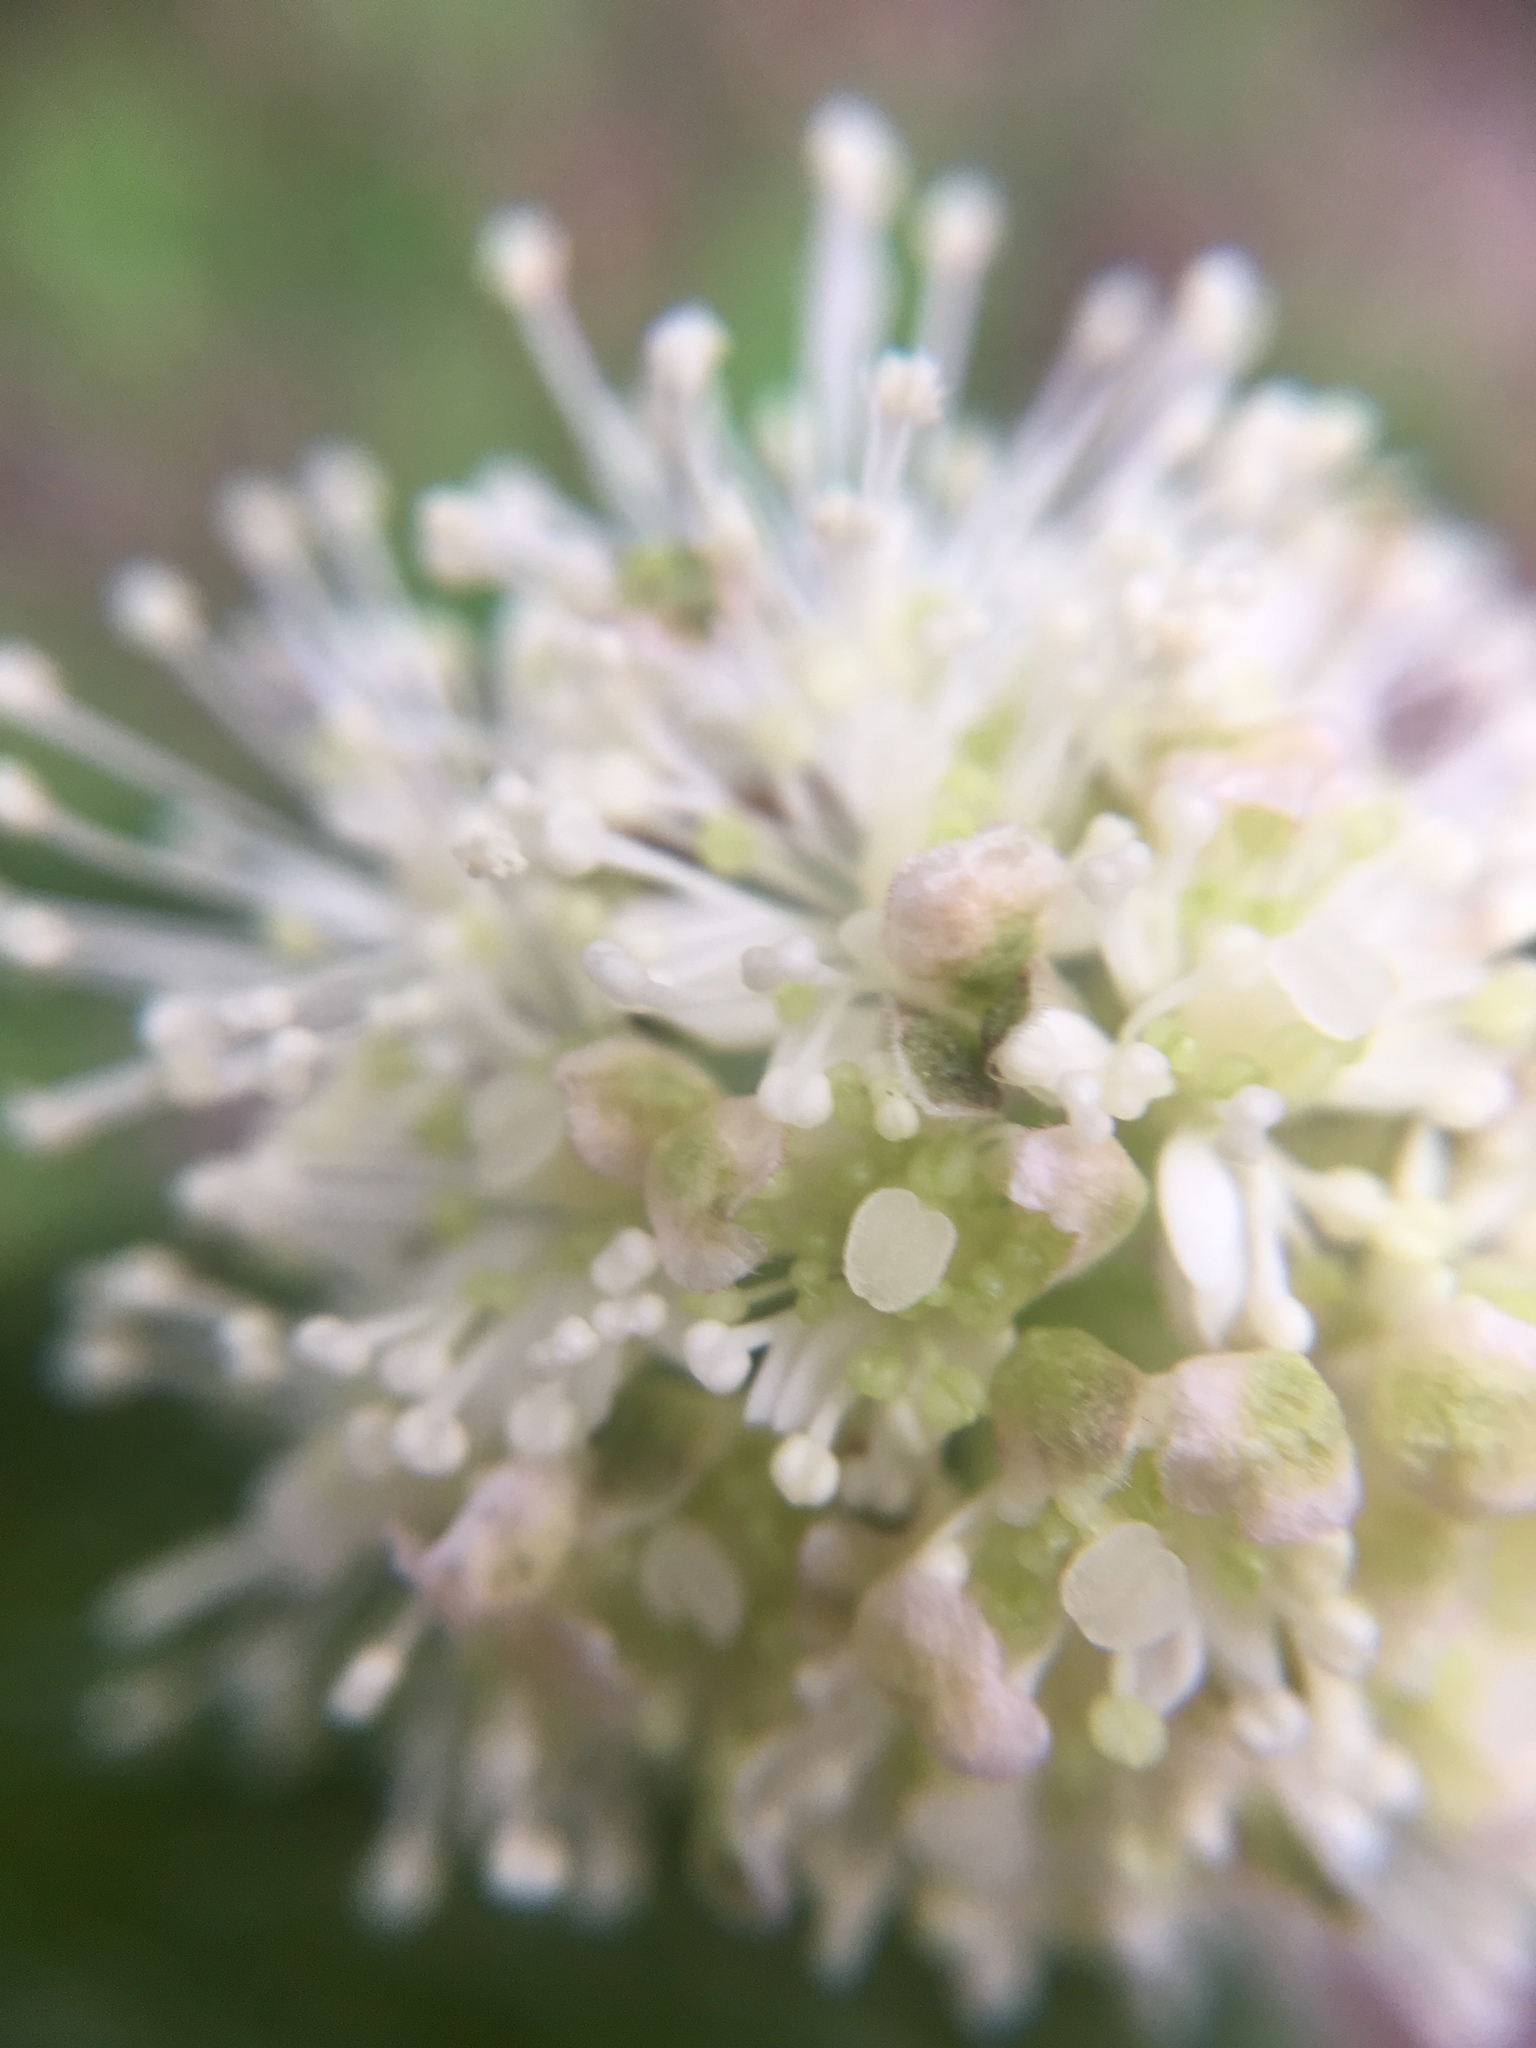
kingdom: Plantae
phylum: Tracheophyta
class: Magnoliopsida
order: Ranunculales
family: Ranunculaceae
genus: Actaea
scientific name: Actaea rubra
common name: Red baneberry
